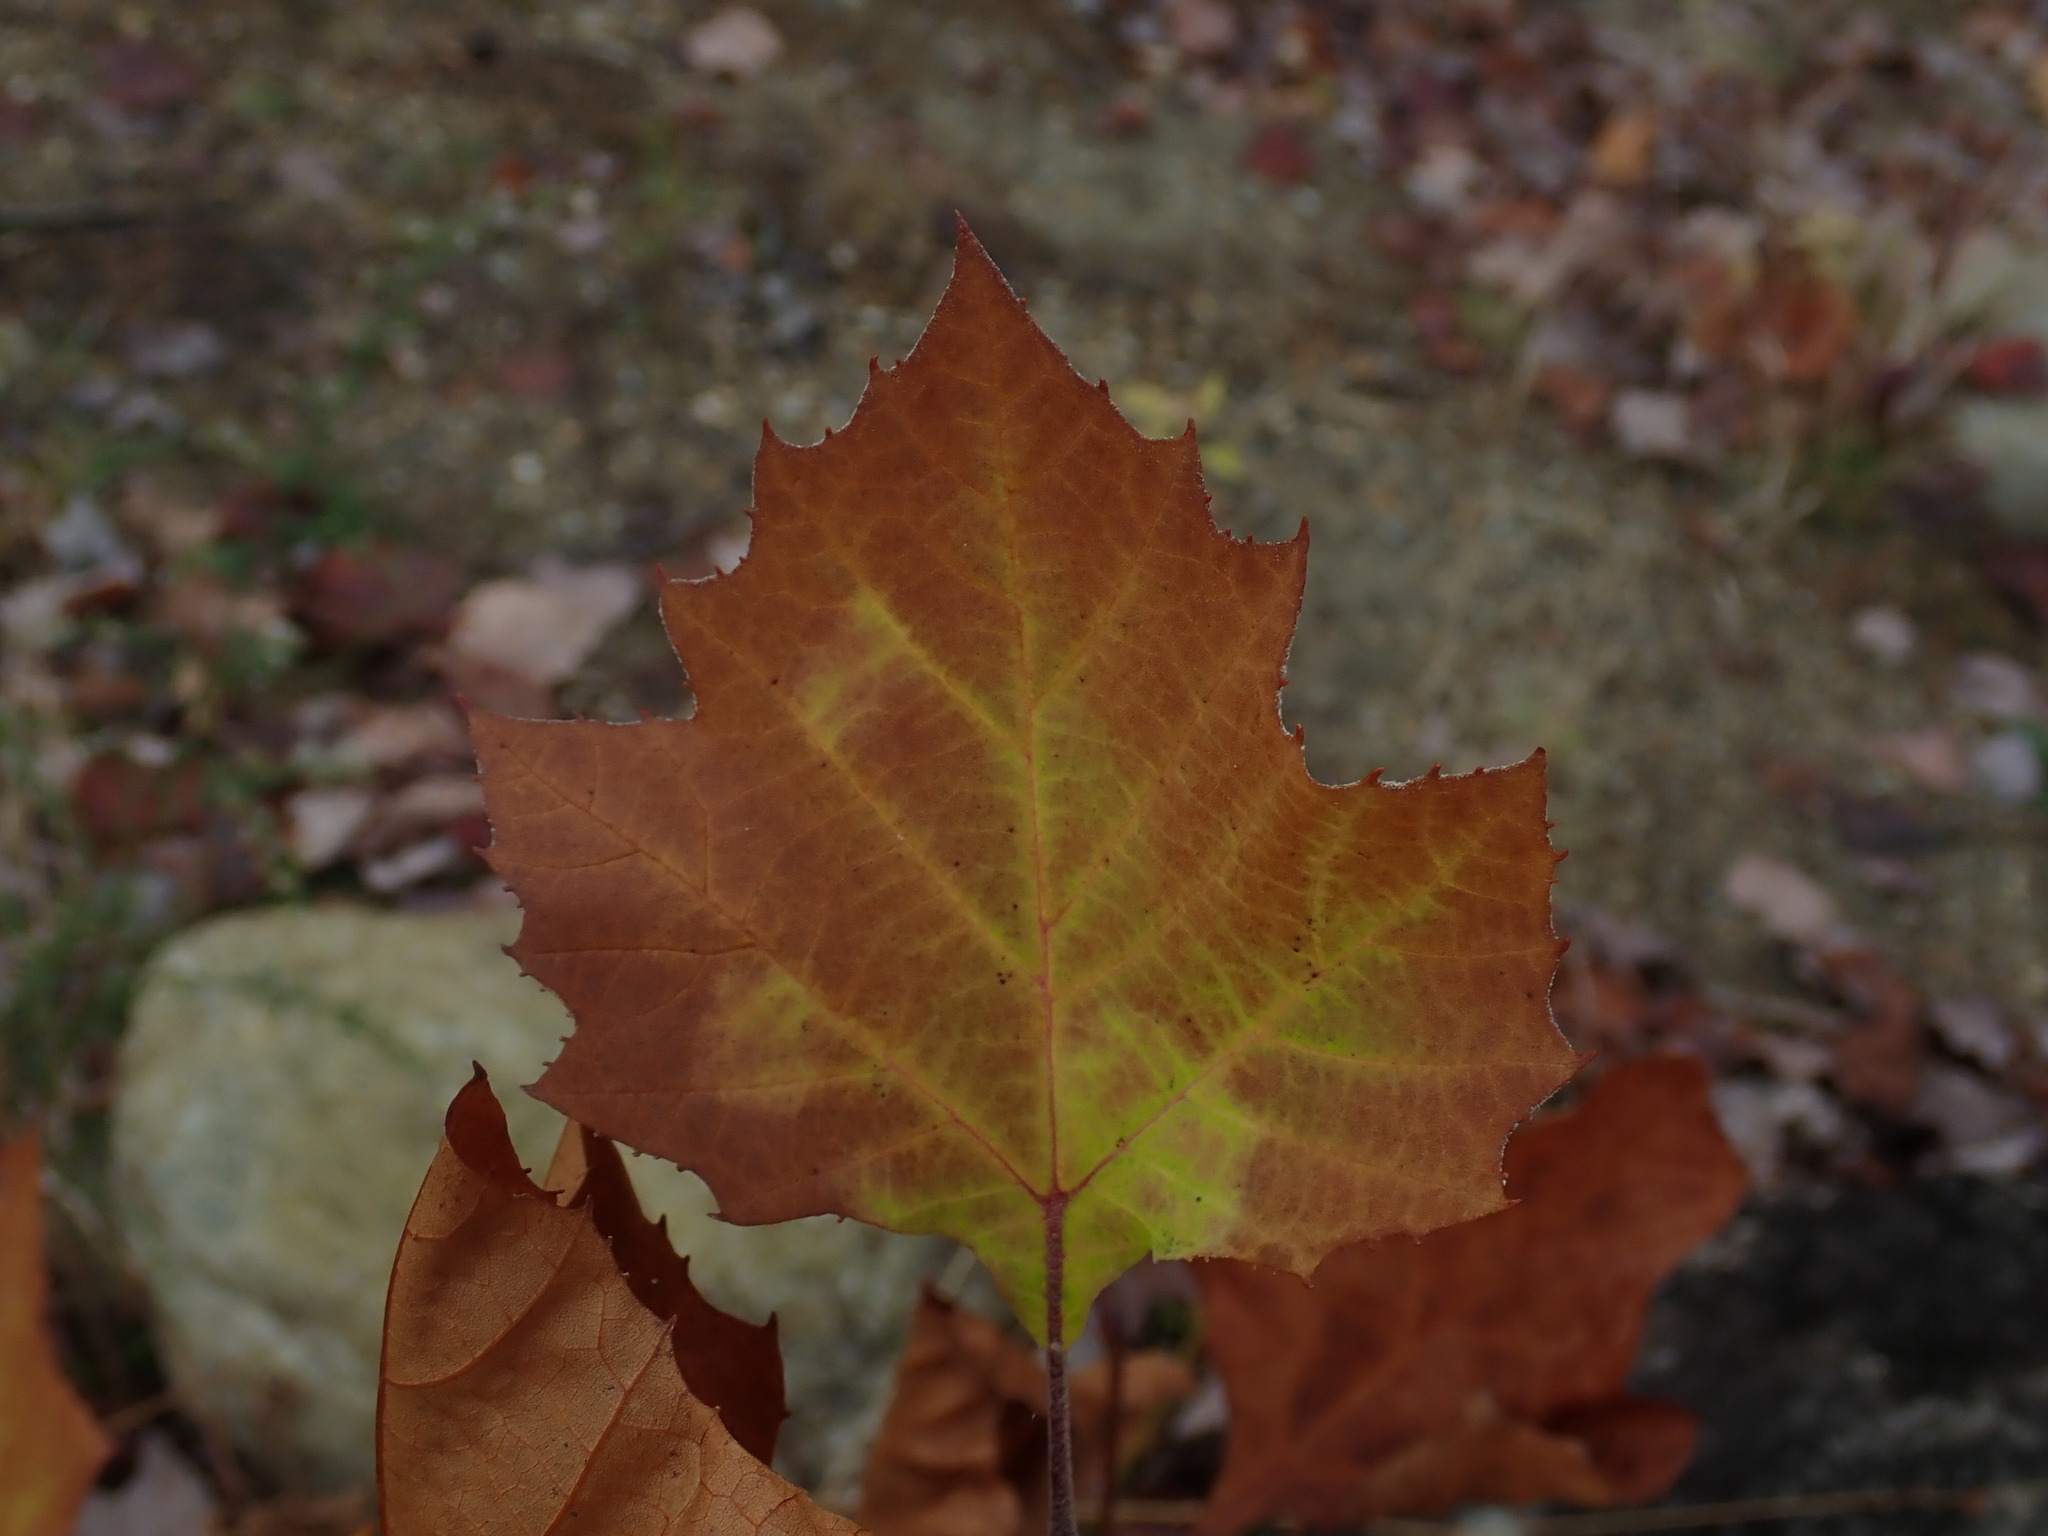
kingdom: Plantae
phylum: Tracheophyta
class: Magnoliopsida
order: Proteales
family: Platanaceae
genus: Platanus
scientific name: Platanus occidentalis
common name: American sycamore
